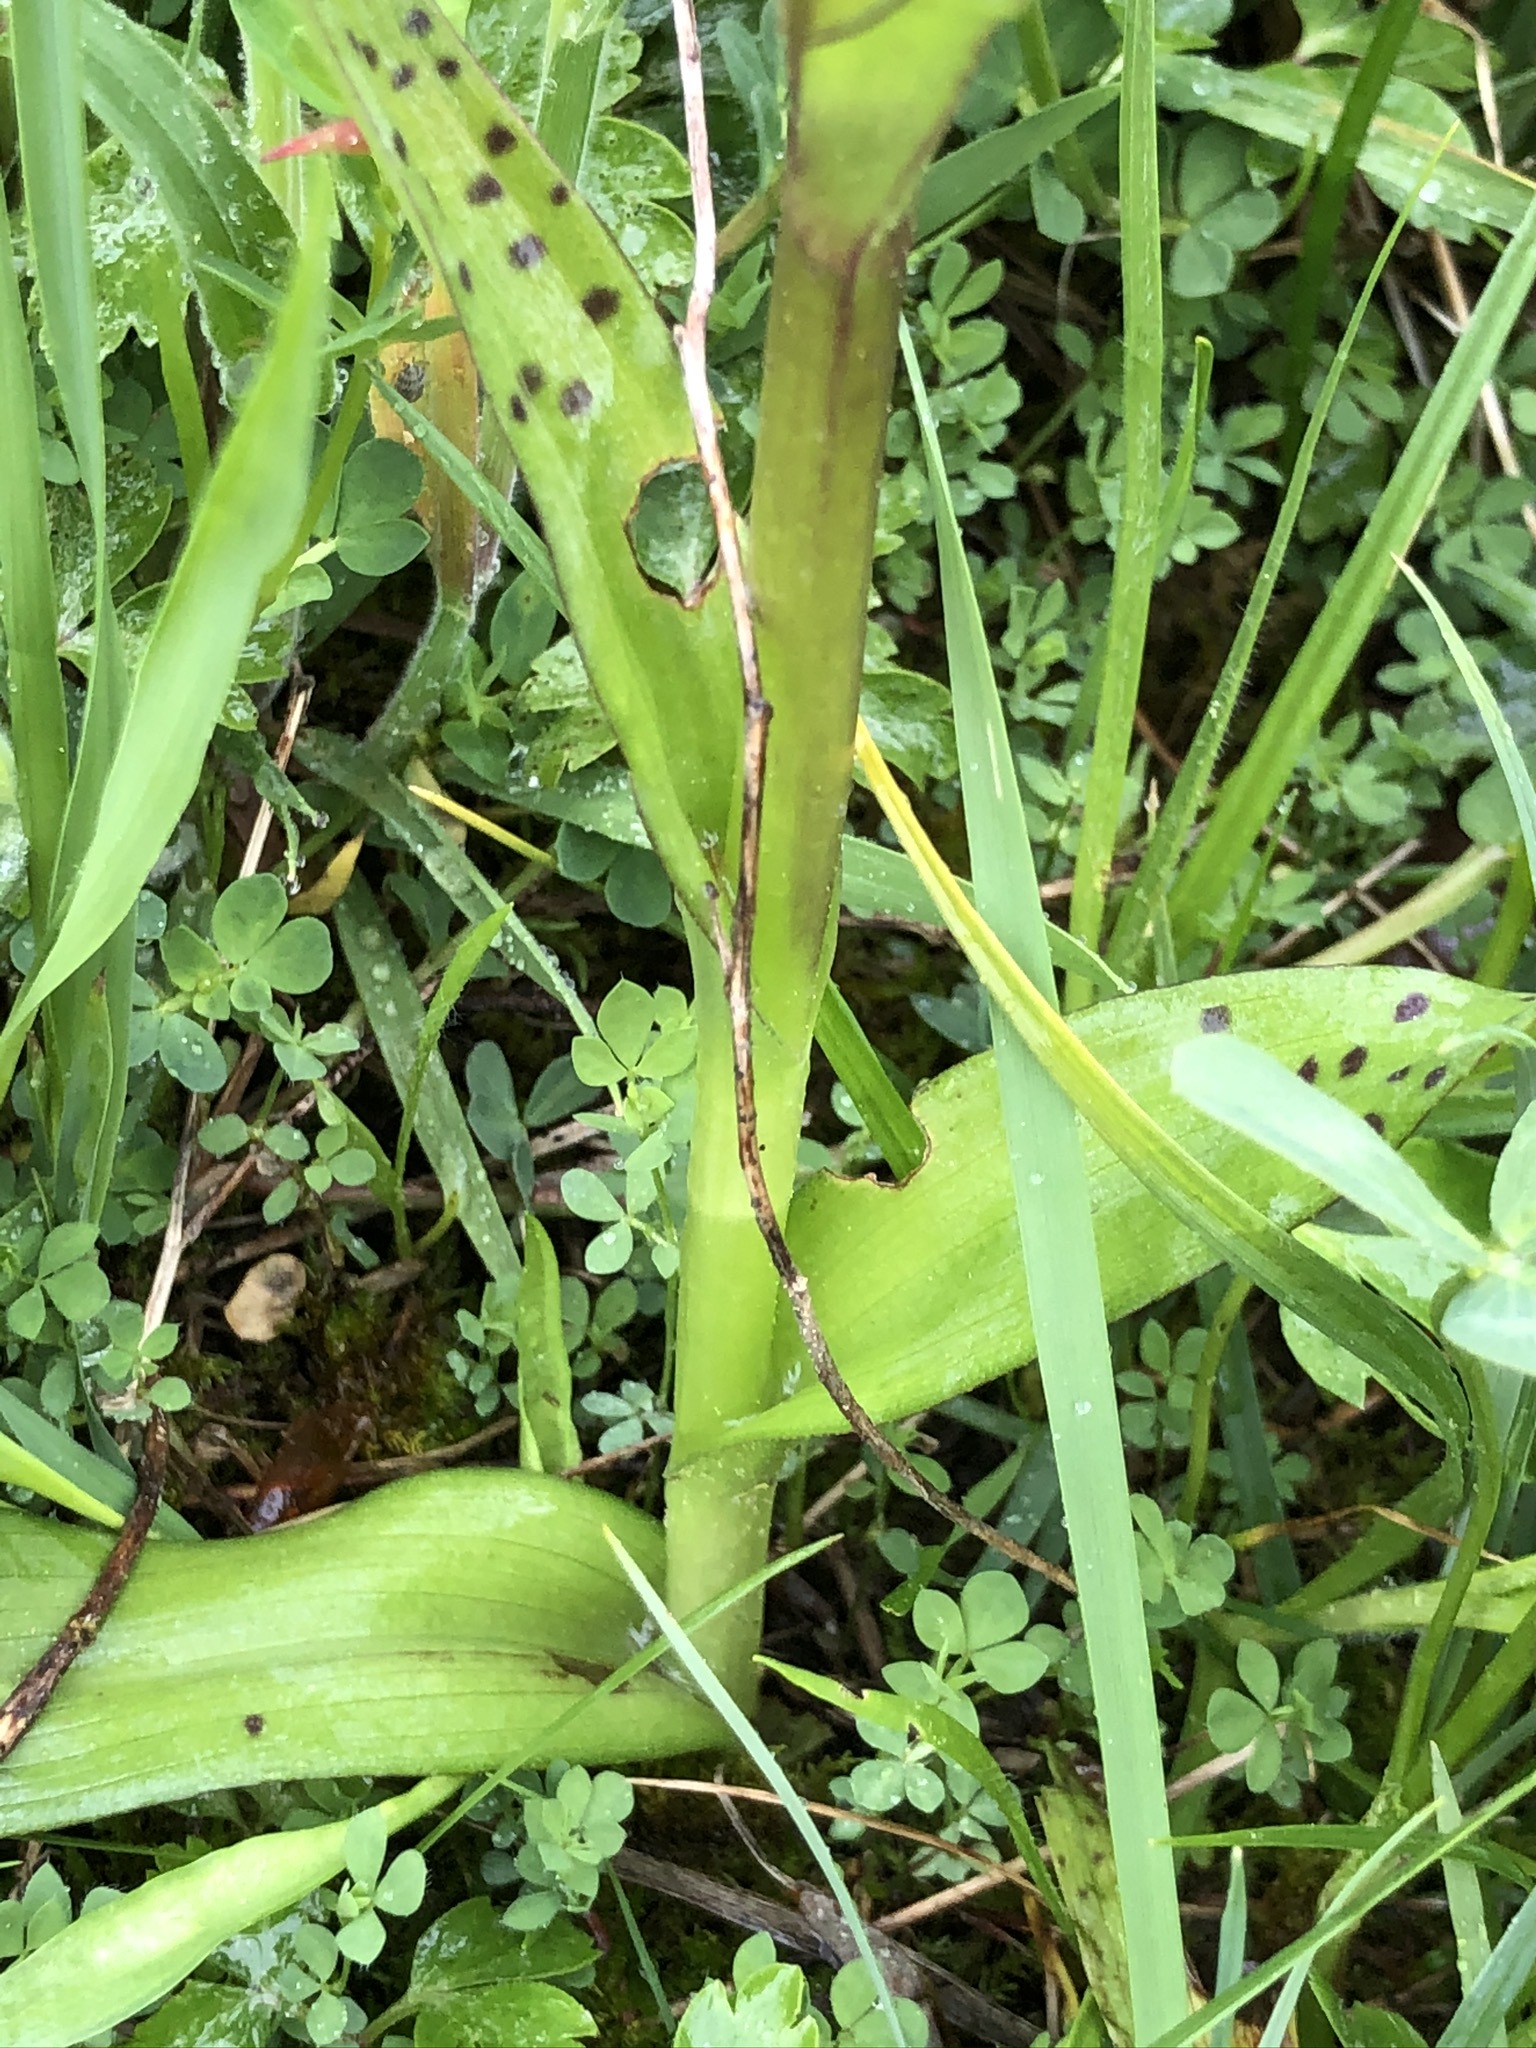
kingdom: Plantae
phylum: Tracheophyta
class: Liliopsida
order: Asparagales
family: Orchidaceae
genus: Dactylorhiza
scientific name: Dactylorhiza incarnata
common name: Early marsh-orchid
